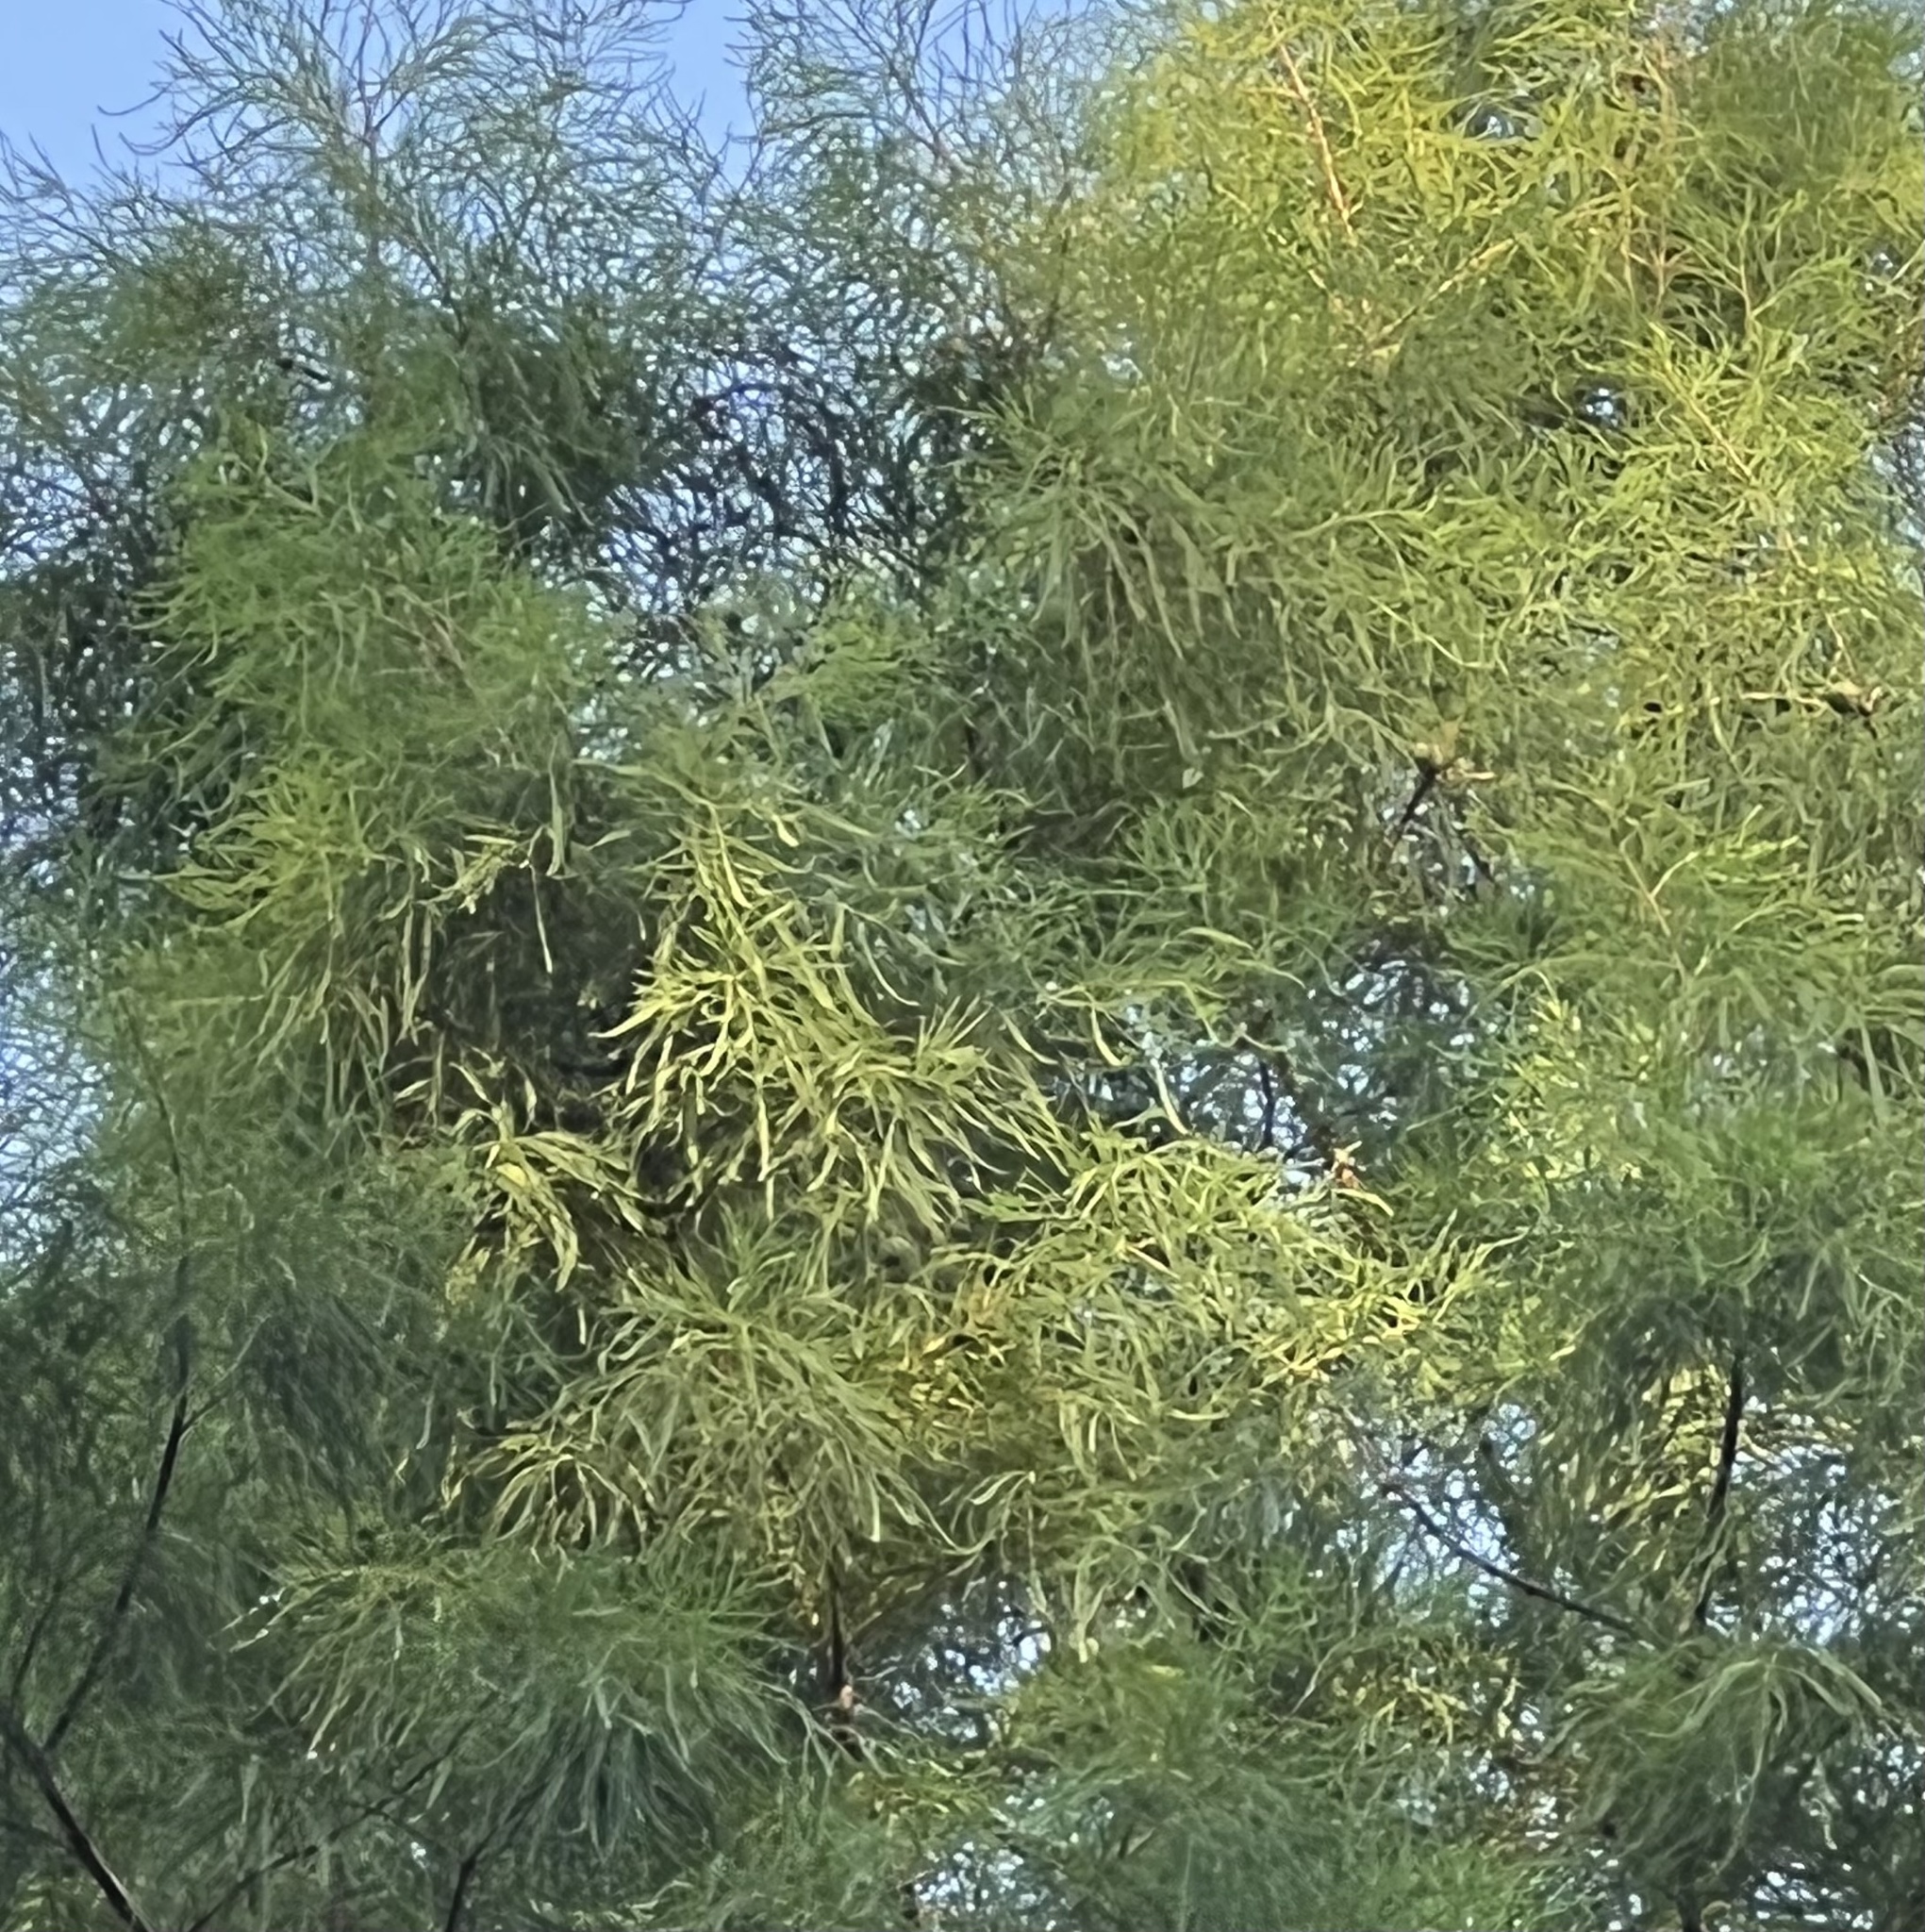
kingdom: Plantae
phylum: Tracheophyta
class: Pinopsida
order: Pinales
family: Cupressaceae
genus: Taxodium
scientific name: Taxodium distichum
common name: Bald cypress
